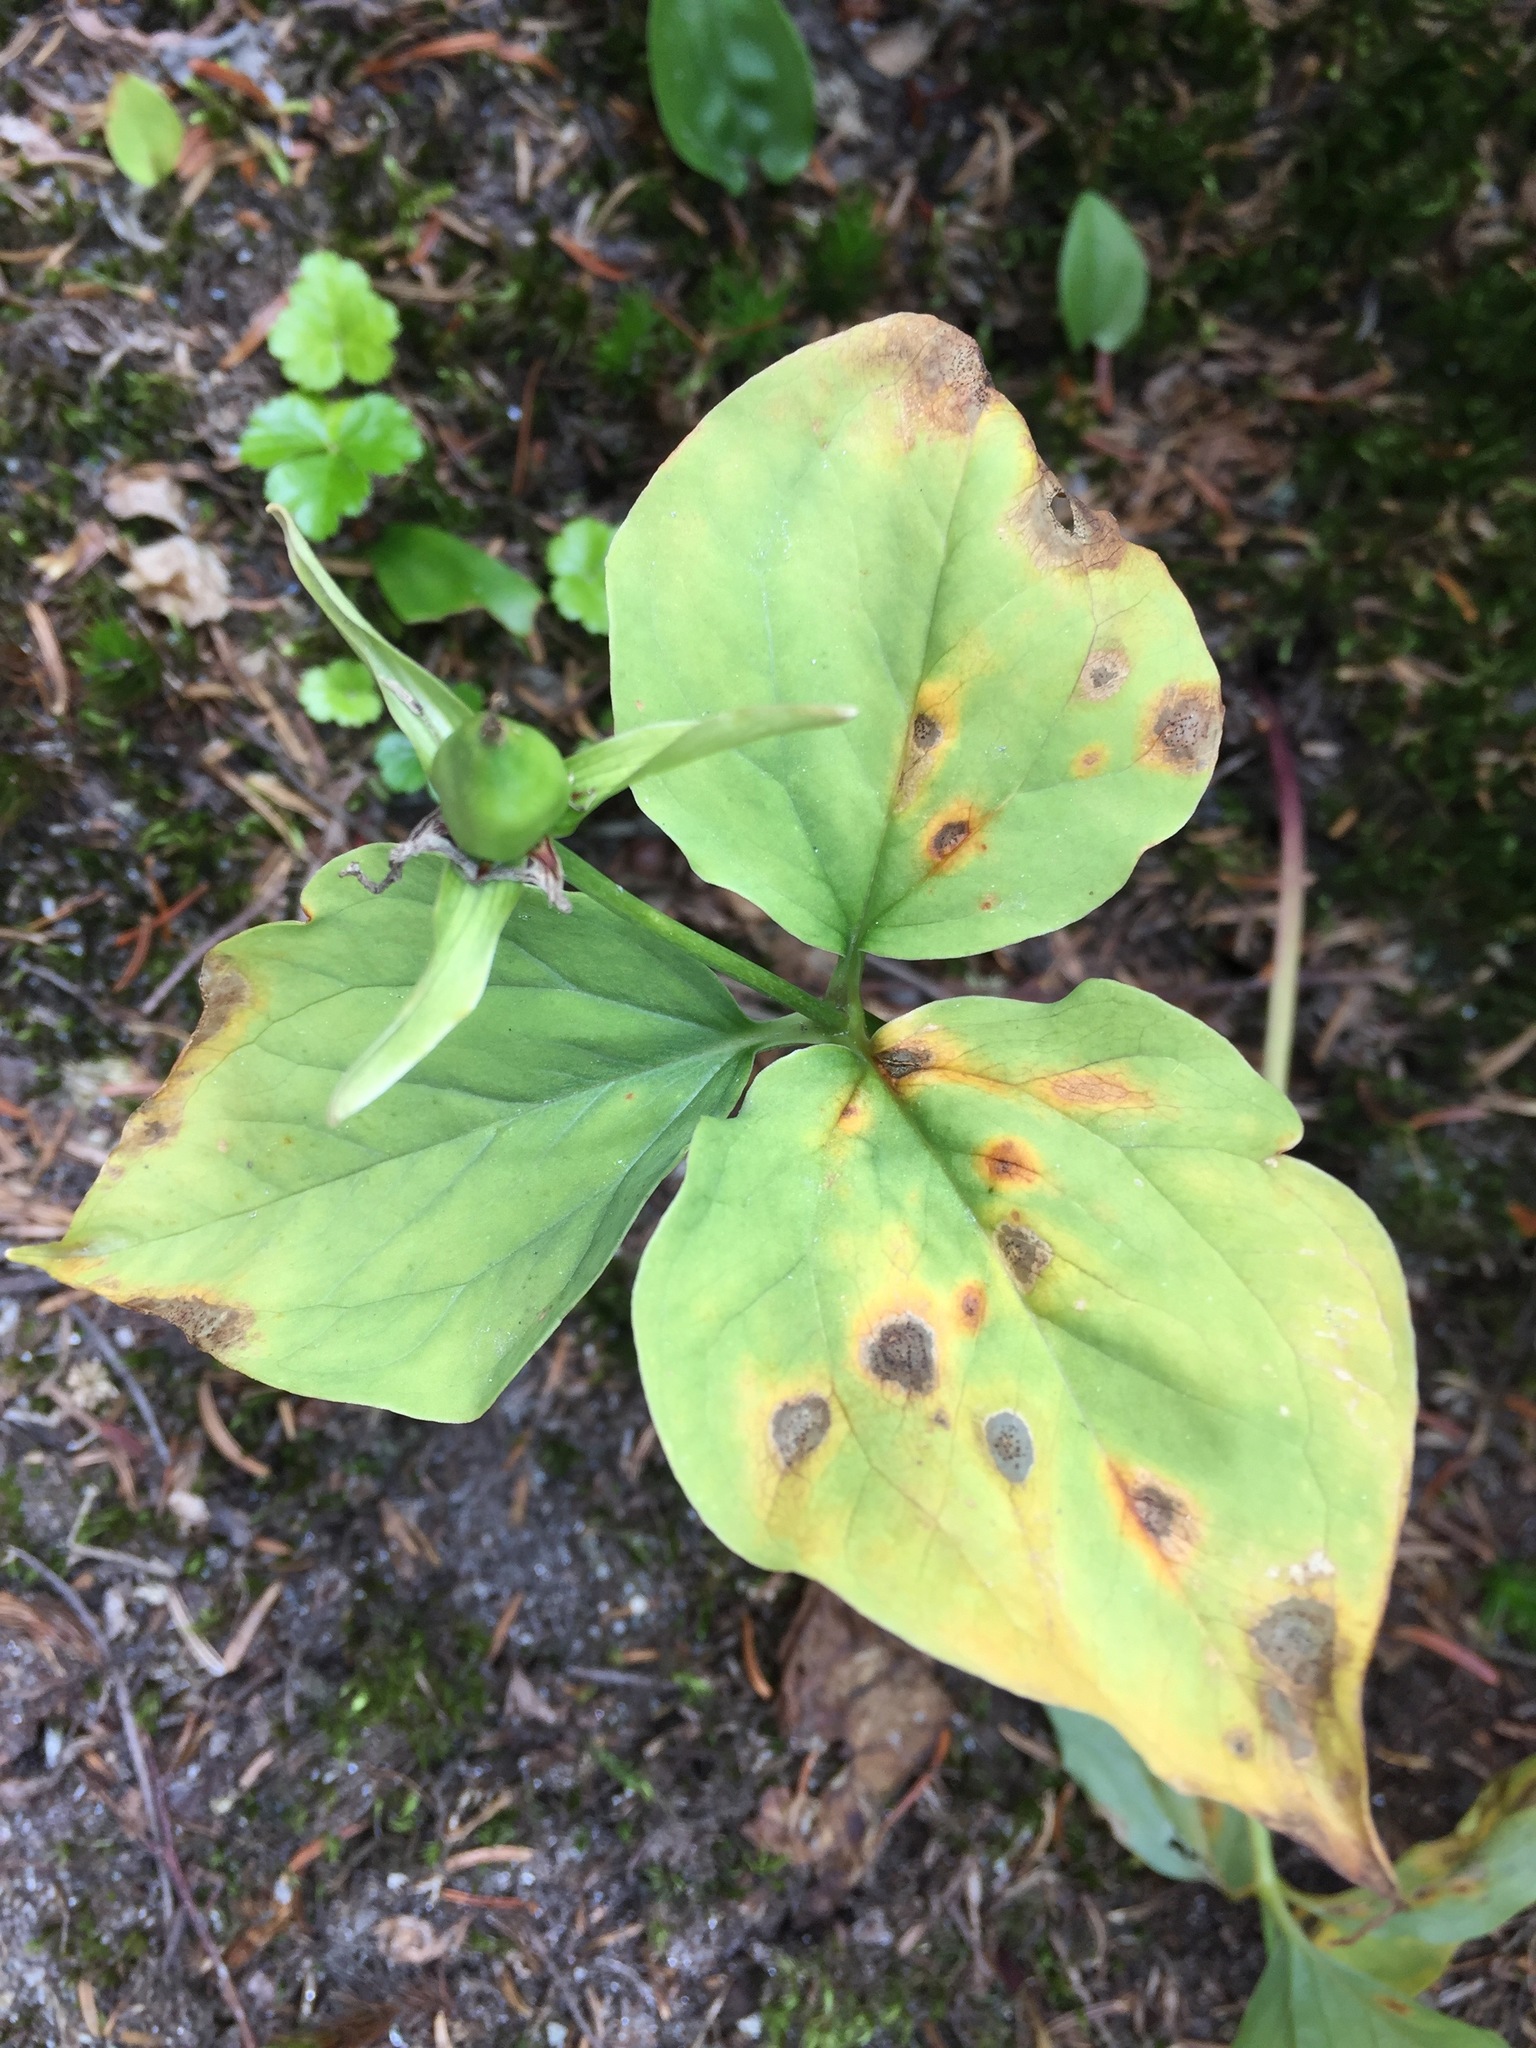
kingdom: Plantae
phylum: Tracheophyta
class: Liliopsida
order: Liliales
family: Melanthiaceae
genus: Trillium
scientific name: Trillium undulatum
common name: Paint trillium
